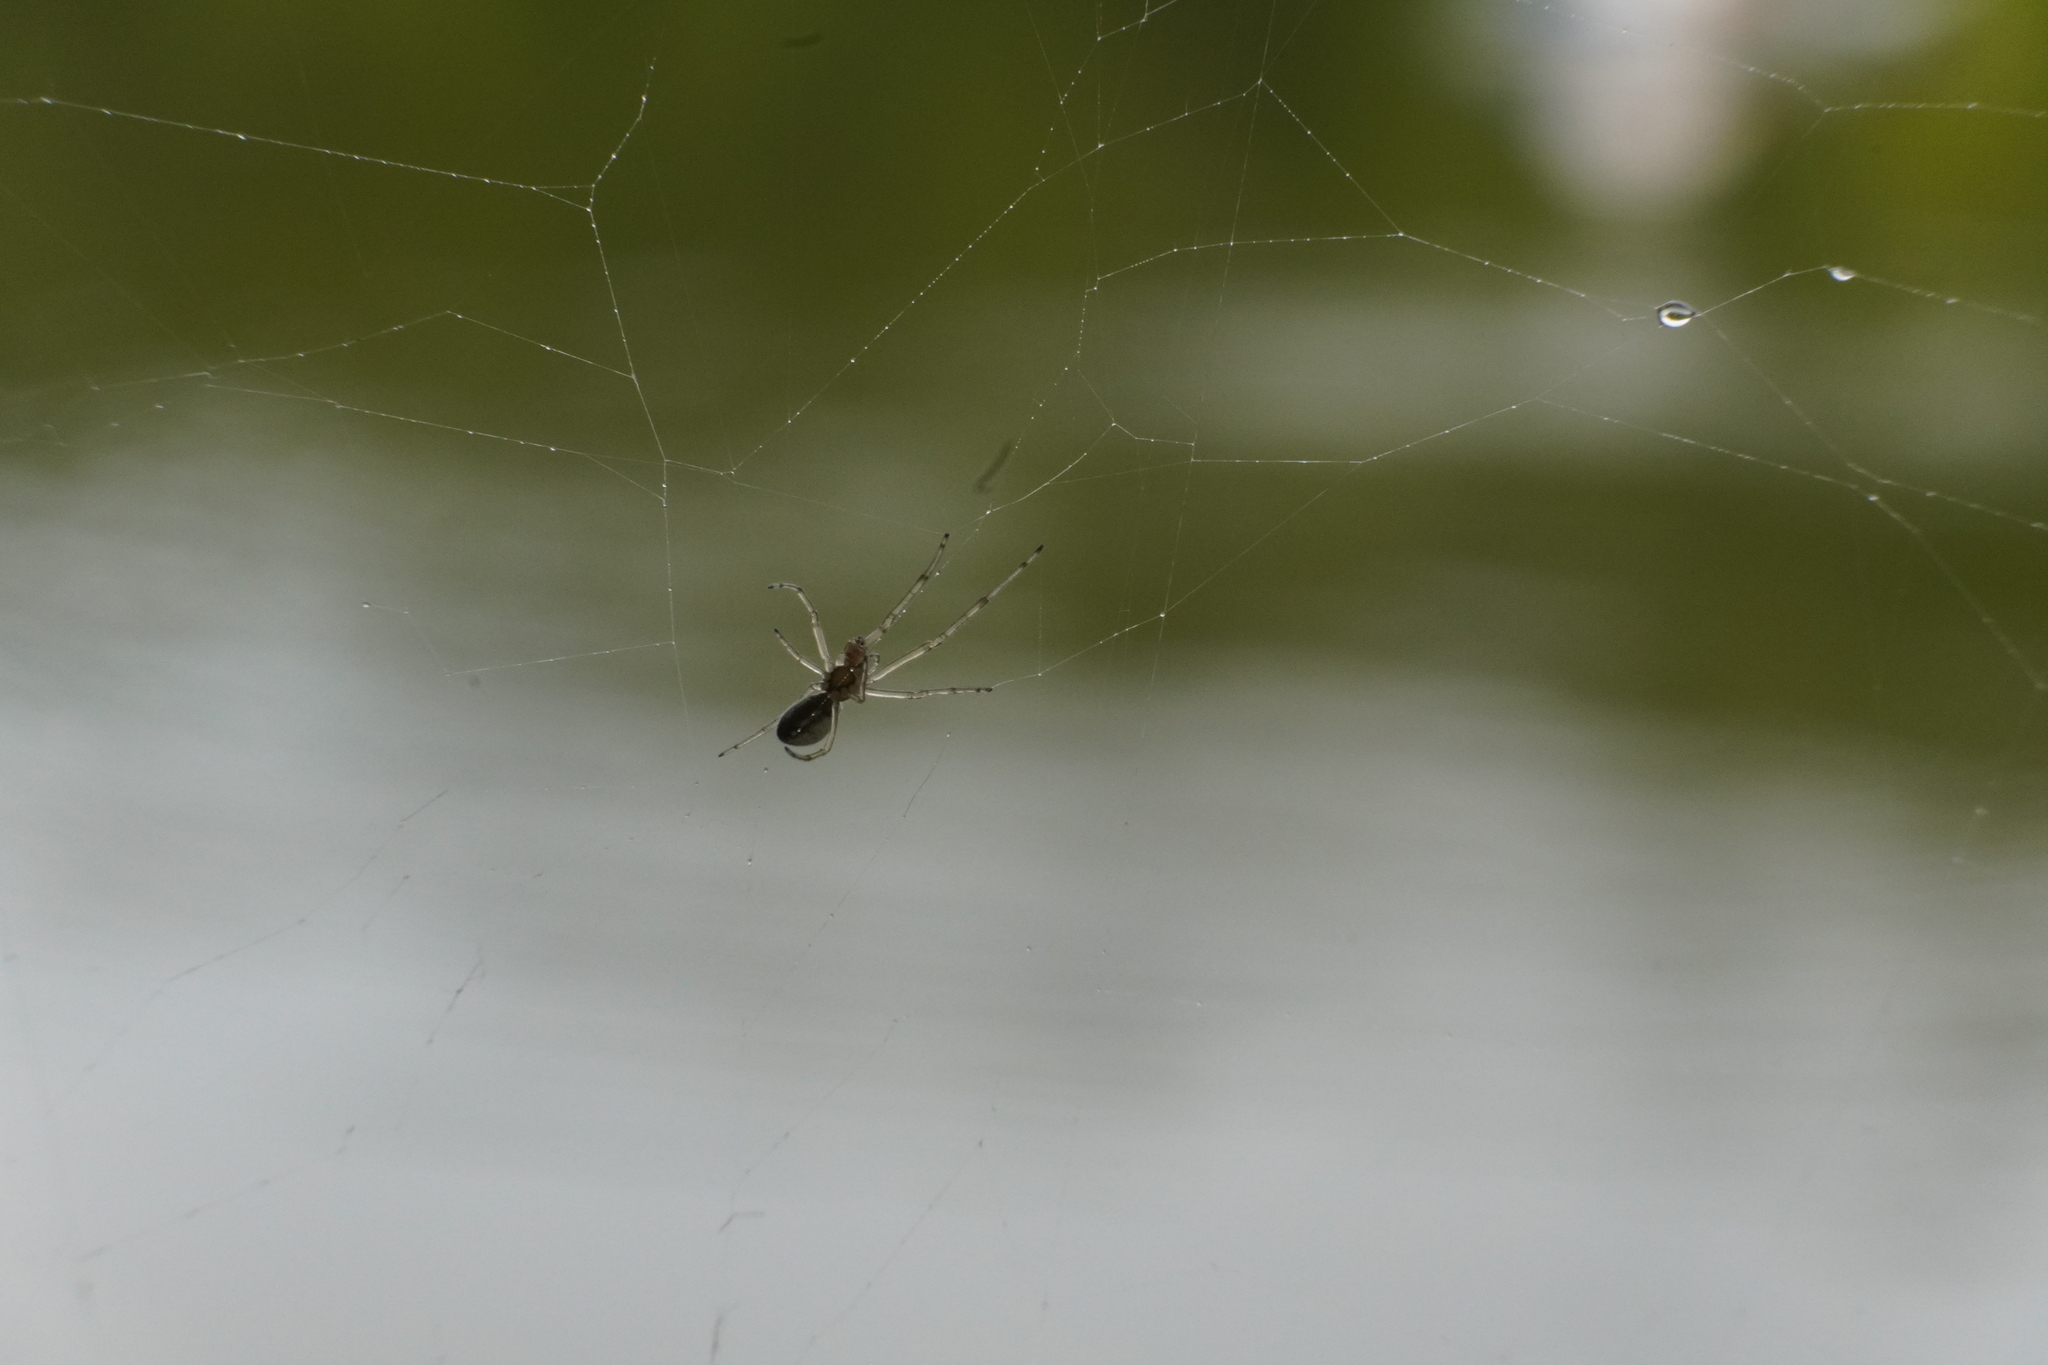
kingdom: Animalia
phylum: Arthropoda
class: Arachnida
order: Araneae
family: Tetragnathidae
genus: Tetragnatha
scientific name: Tetragnatha
